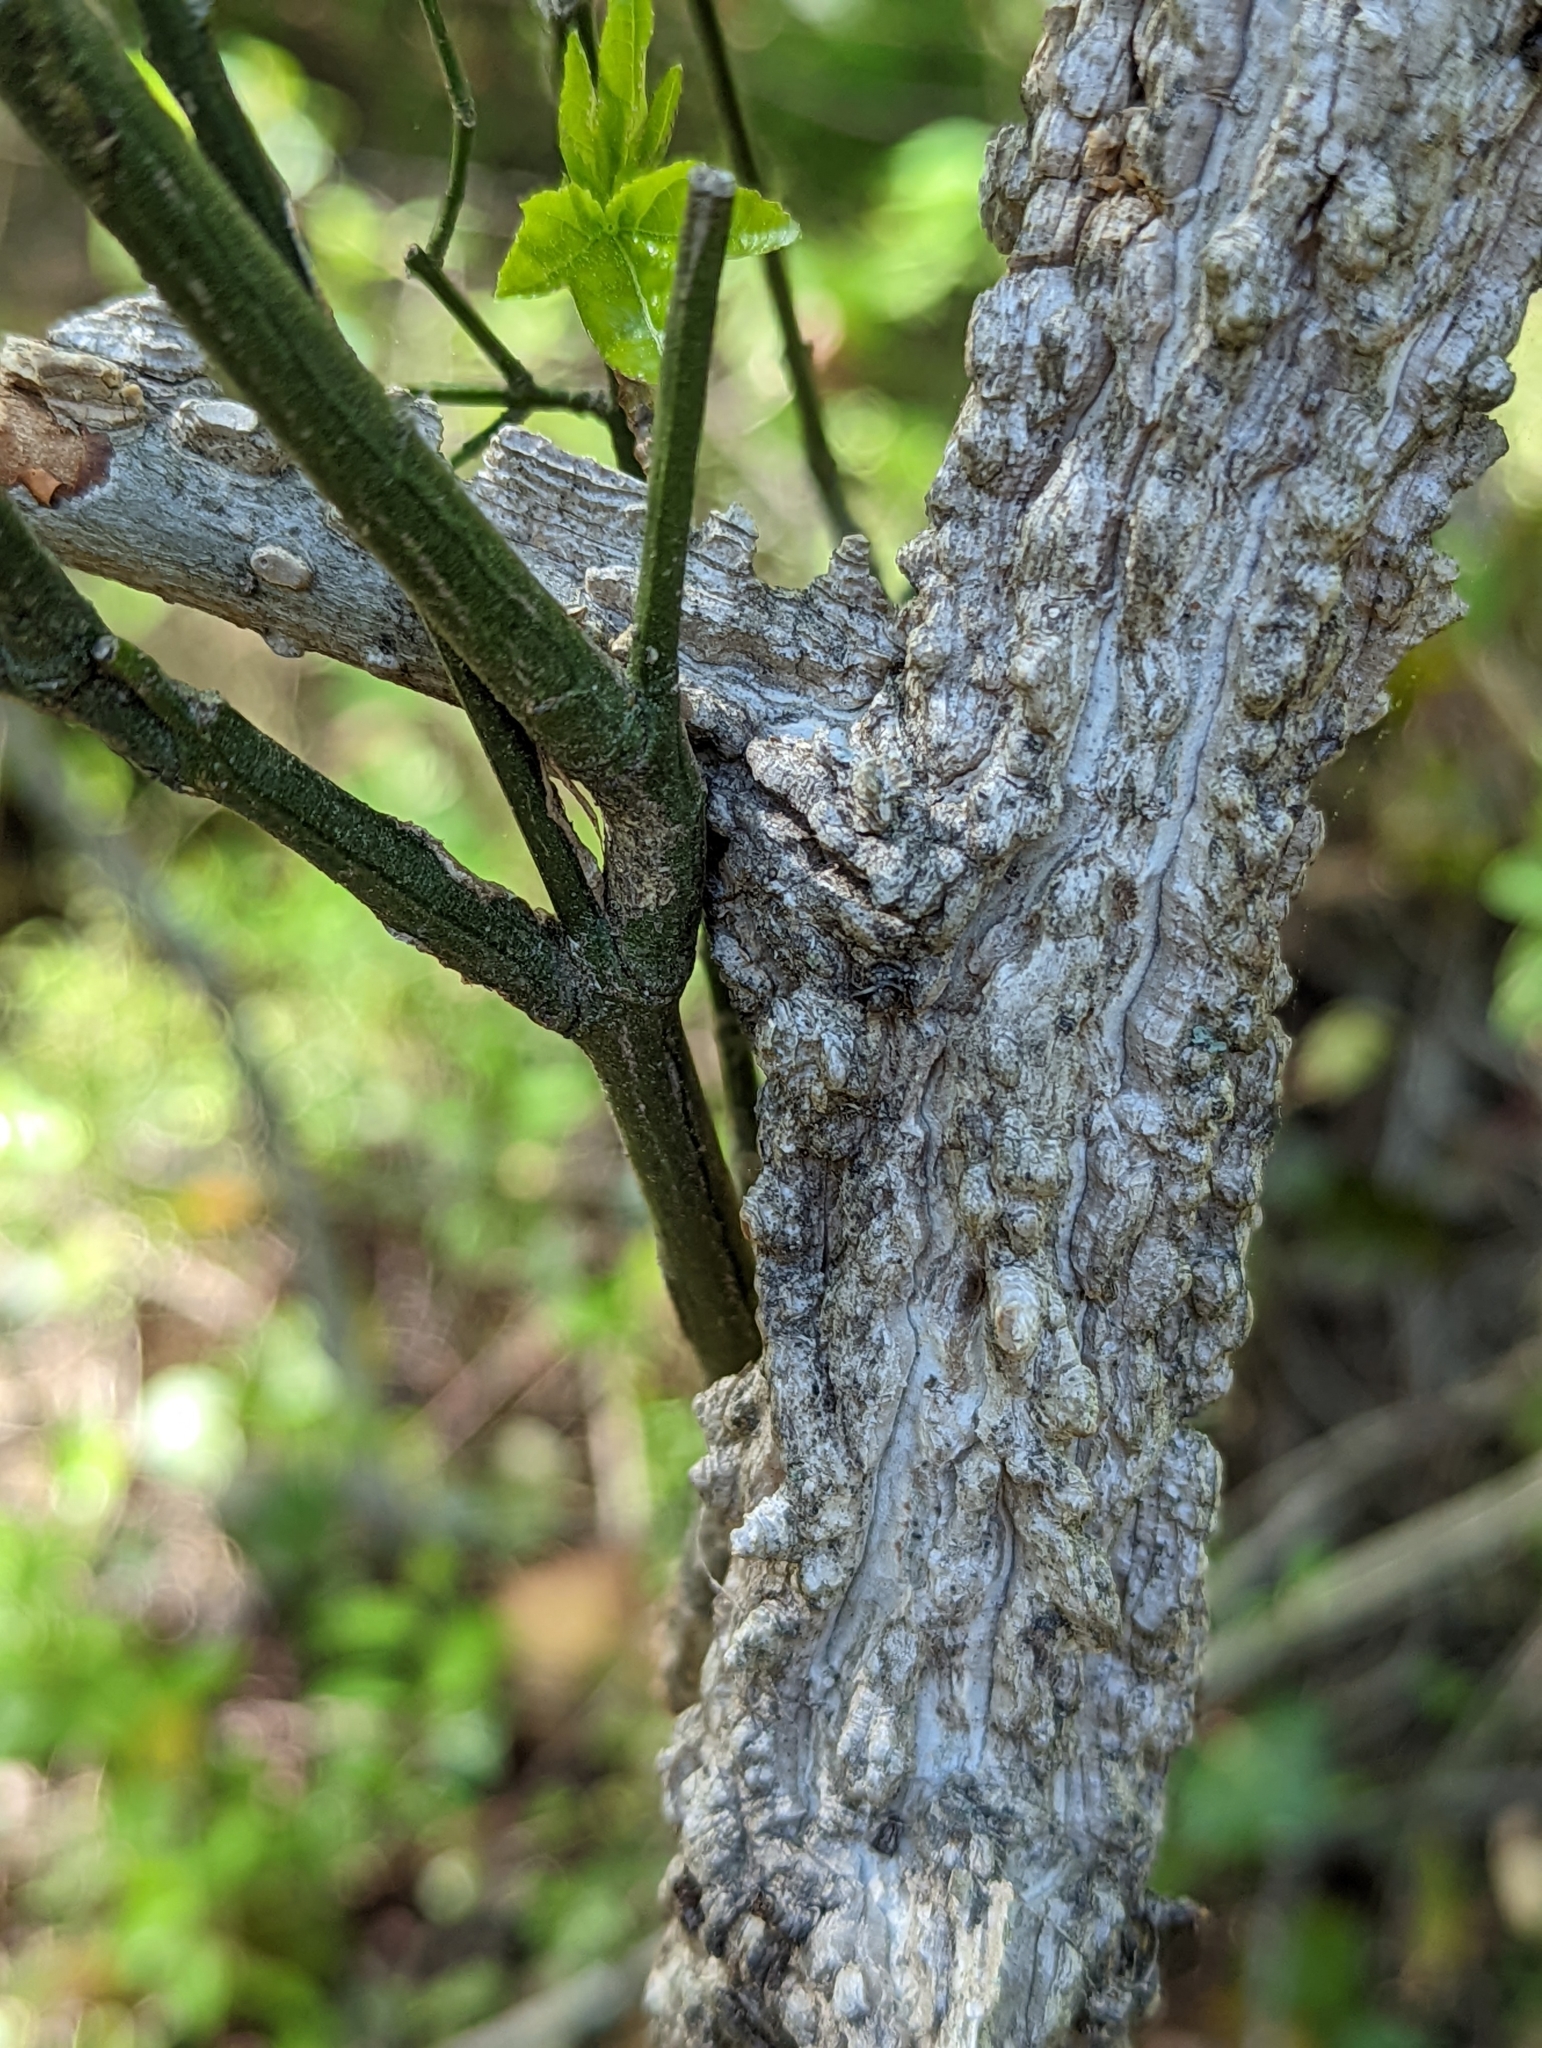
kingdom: Plantae
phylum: Tracheophyta
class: Magnoliopsida
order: Saxifragales
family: Altingiaceae
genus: Liquidambar
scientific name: Liquidambar styraciflua
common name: Sweet gum
